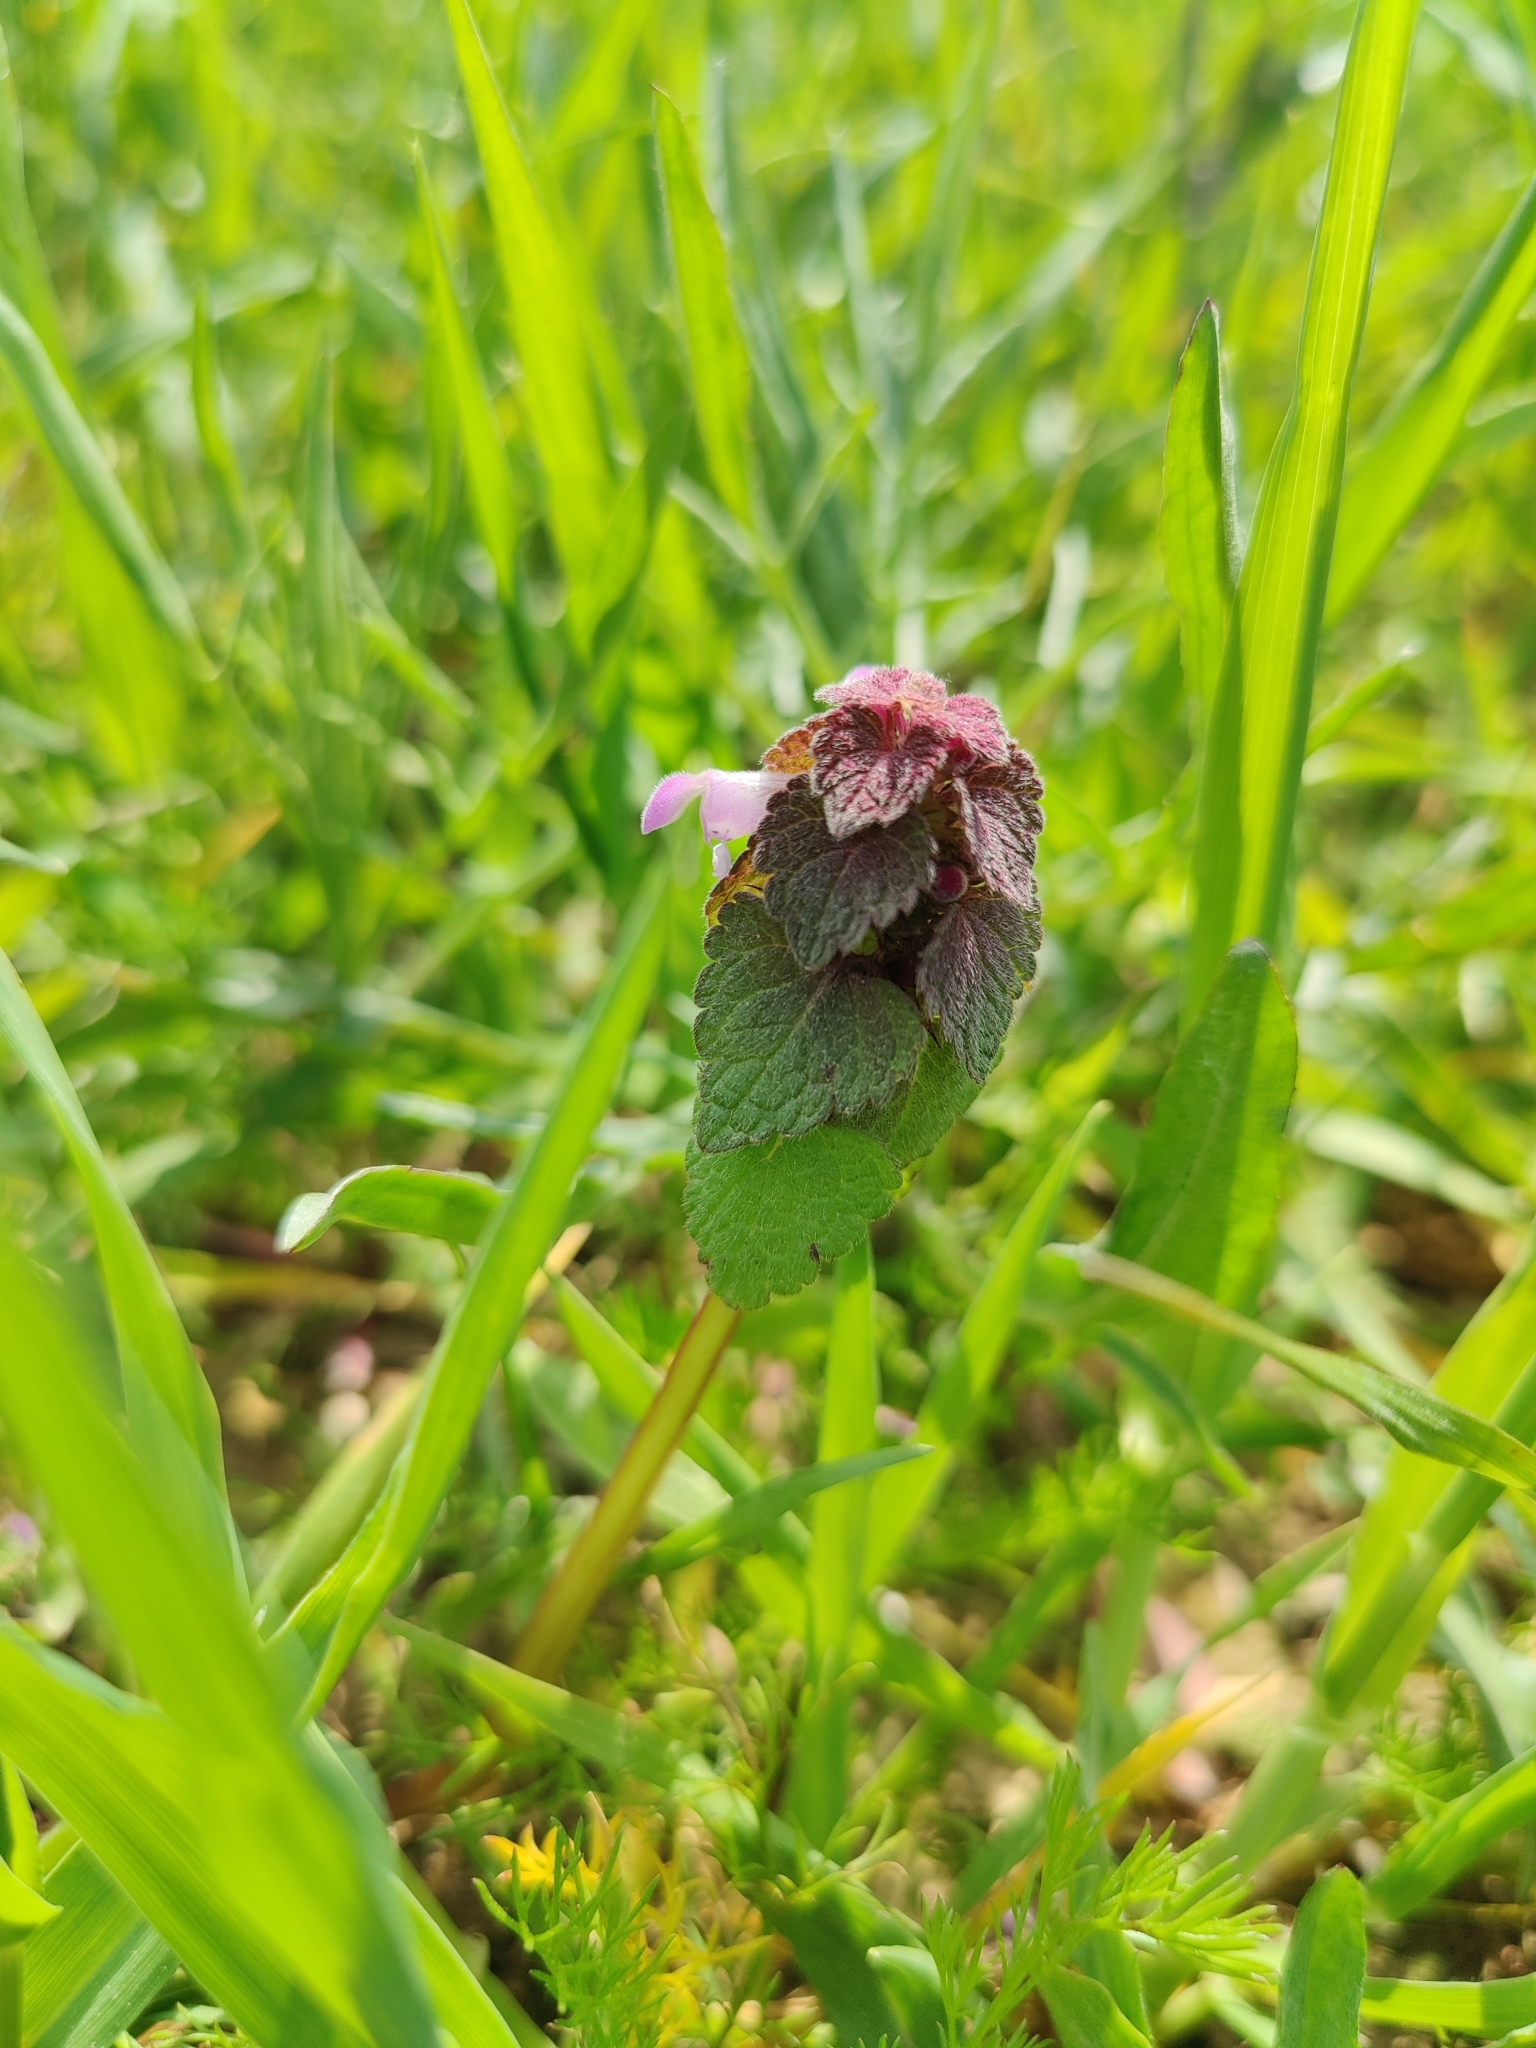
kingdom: Plantae
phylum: Tracheophyta
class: Magnoliopsida
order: Lamiales
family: Lamiaceae
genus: Lamium
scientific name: Lamium purpureum
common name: Red dead-nettle
